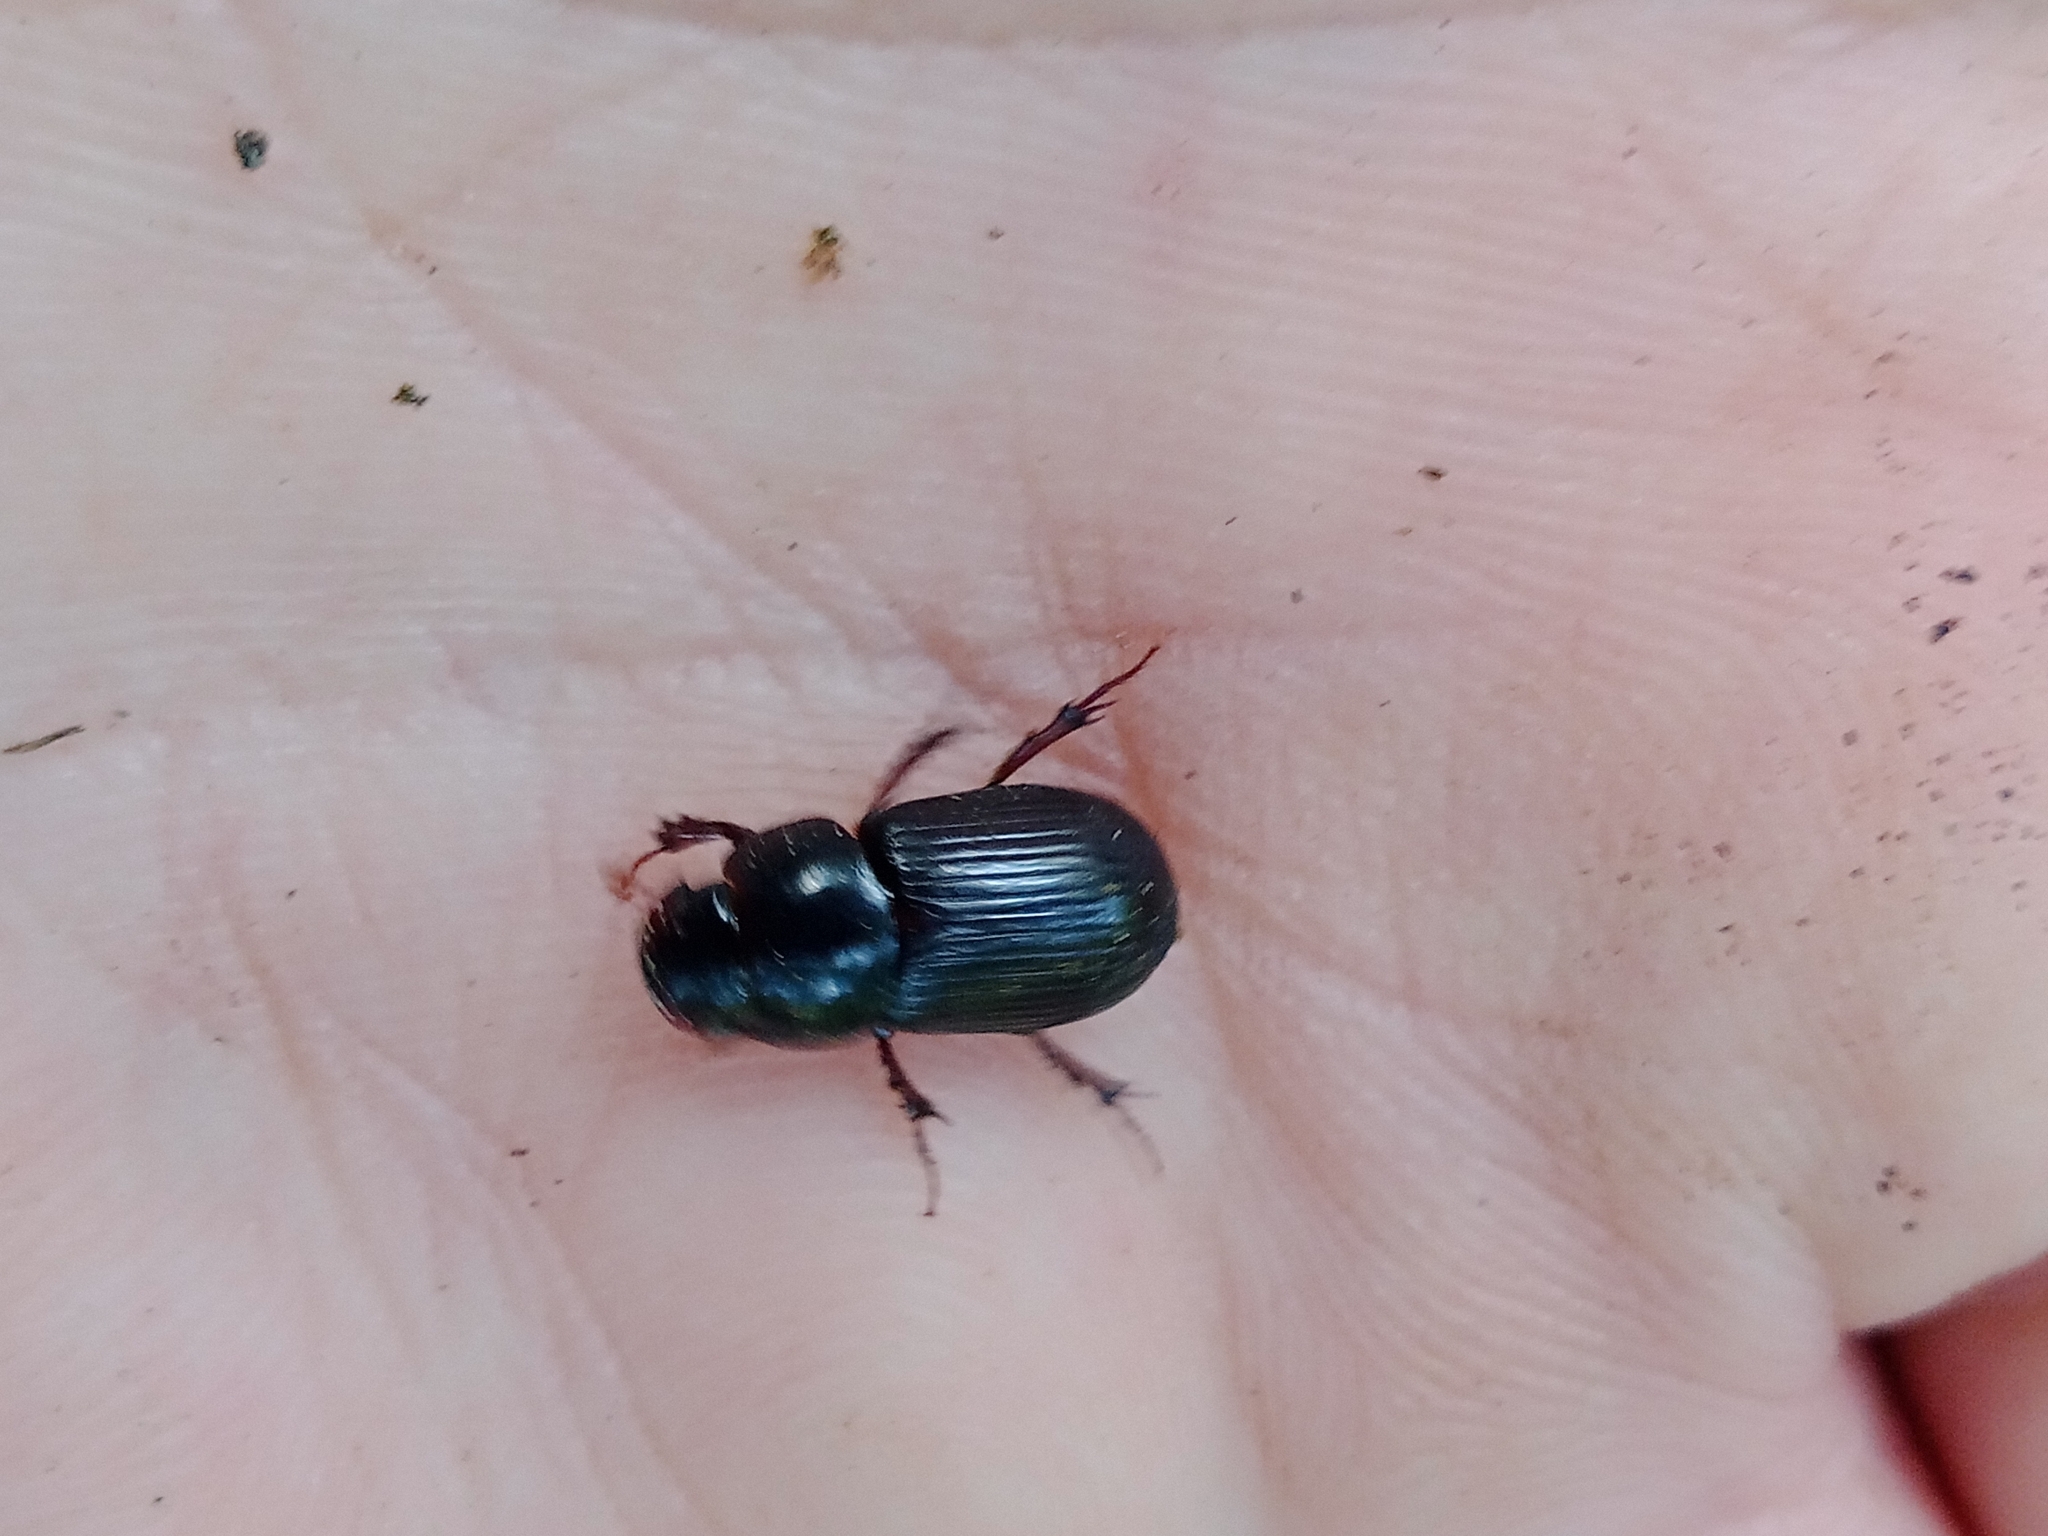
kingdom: Animalia
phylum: Arthropoda
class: Insecta
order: Coleoptera
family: Scarabaeidae
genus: Acrossus
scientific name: Acrossus rufipes
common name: Night-flying dung beetle
